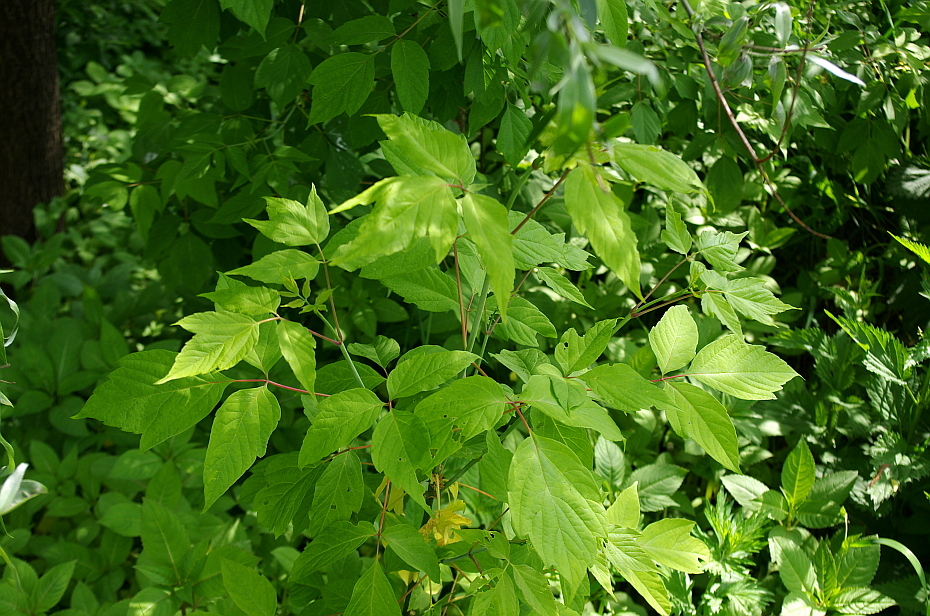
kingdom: Plantae
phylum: Tracheophyta
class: Magnoliopsida
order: Sapindales
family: Sapindaceae
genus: Acer
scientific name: Acer negundo
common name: Ashleaf maple
